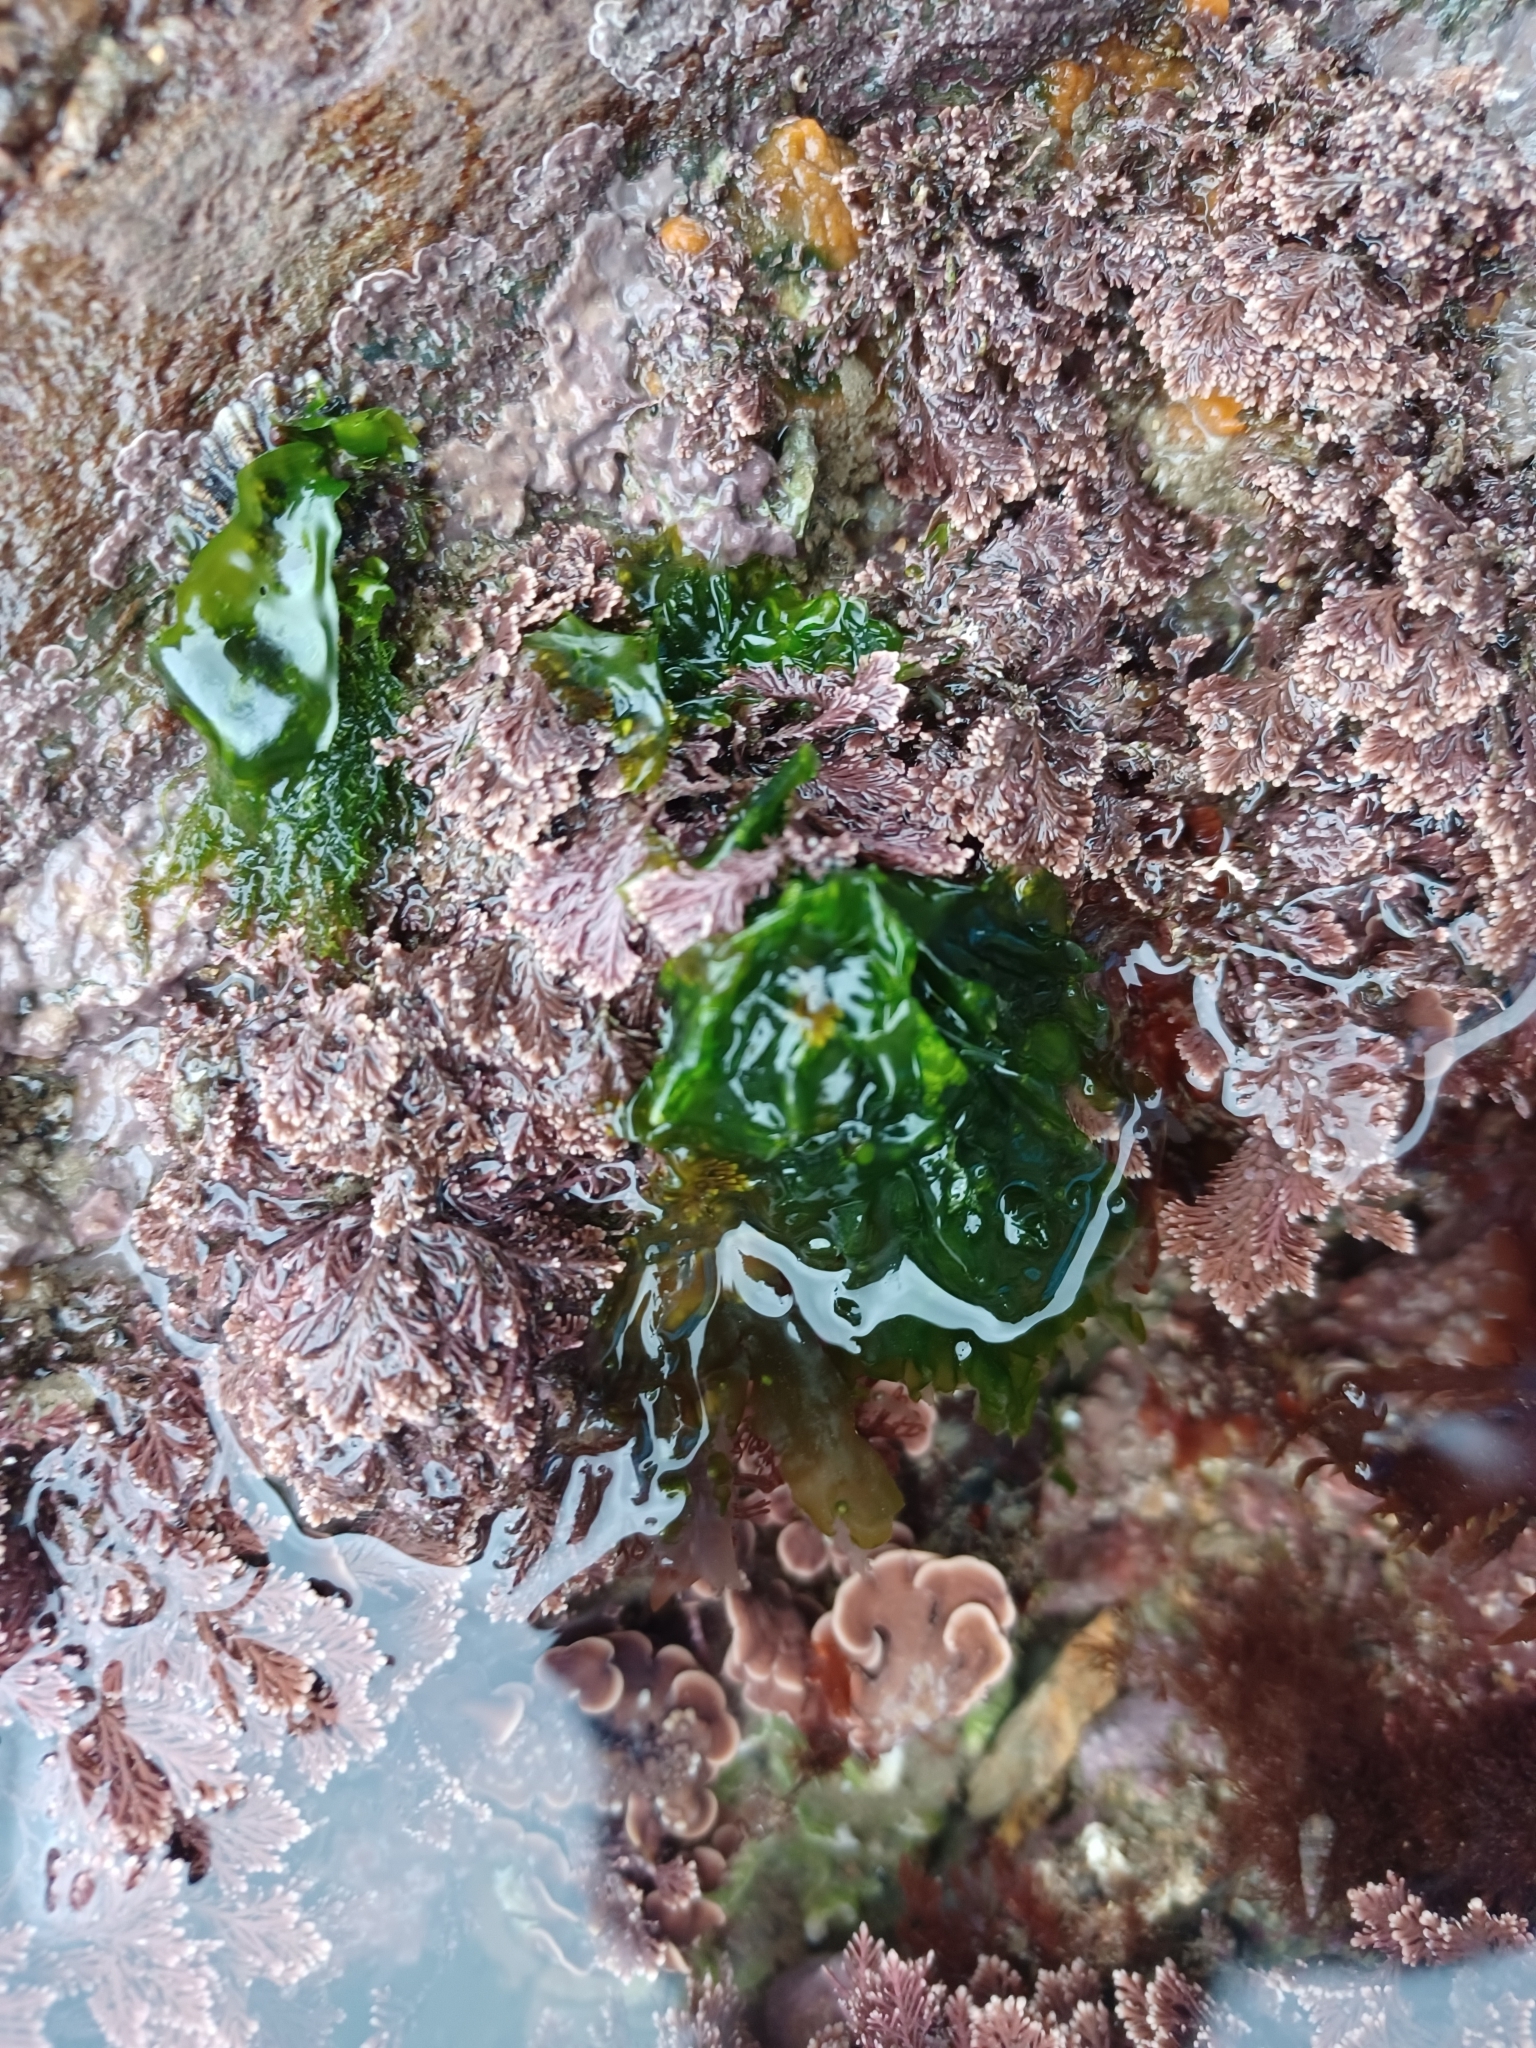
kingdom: Plantae
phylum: Chlorophyta
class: Ulvophyceae
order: Ulvales
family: Ulvaceae
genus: Ulva
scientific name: Ulva lactuca
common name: Sea lettuce
